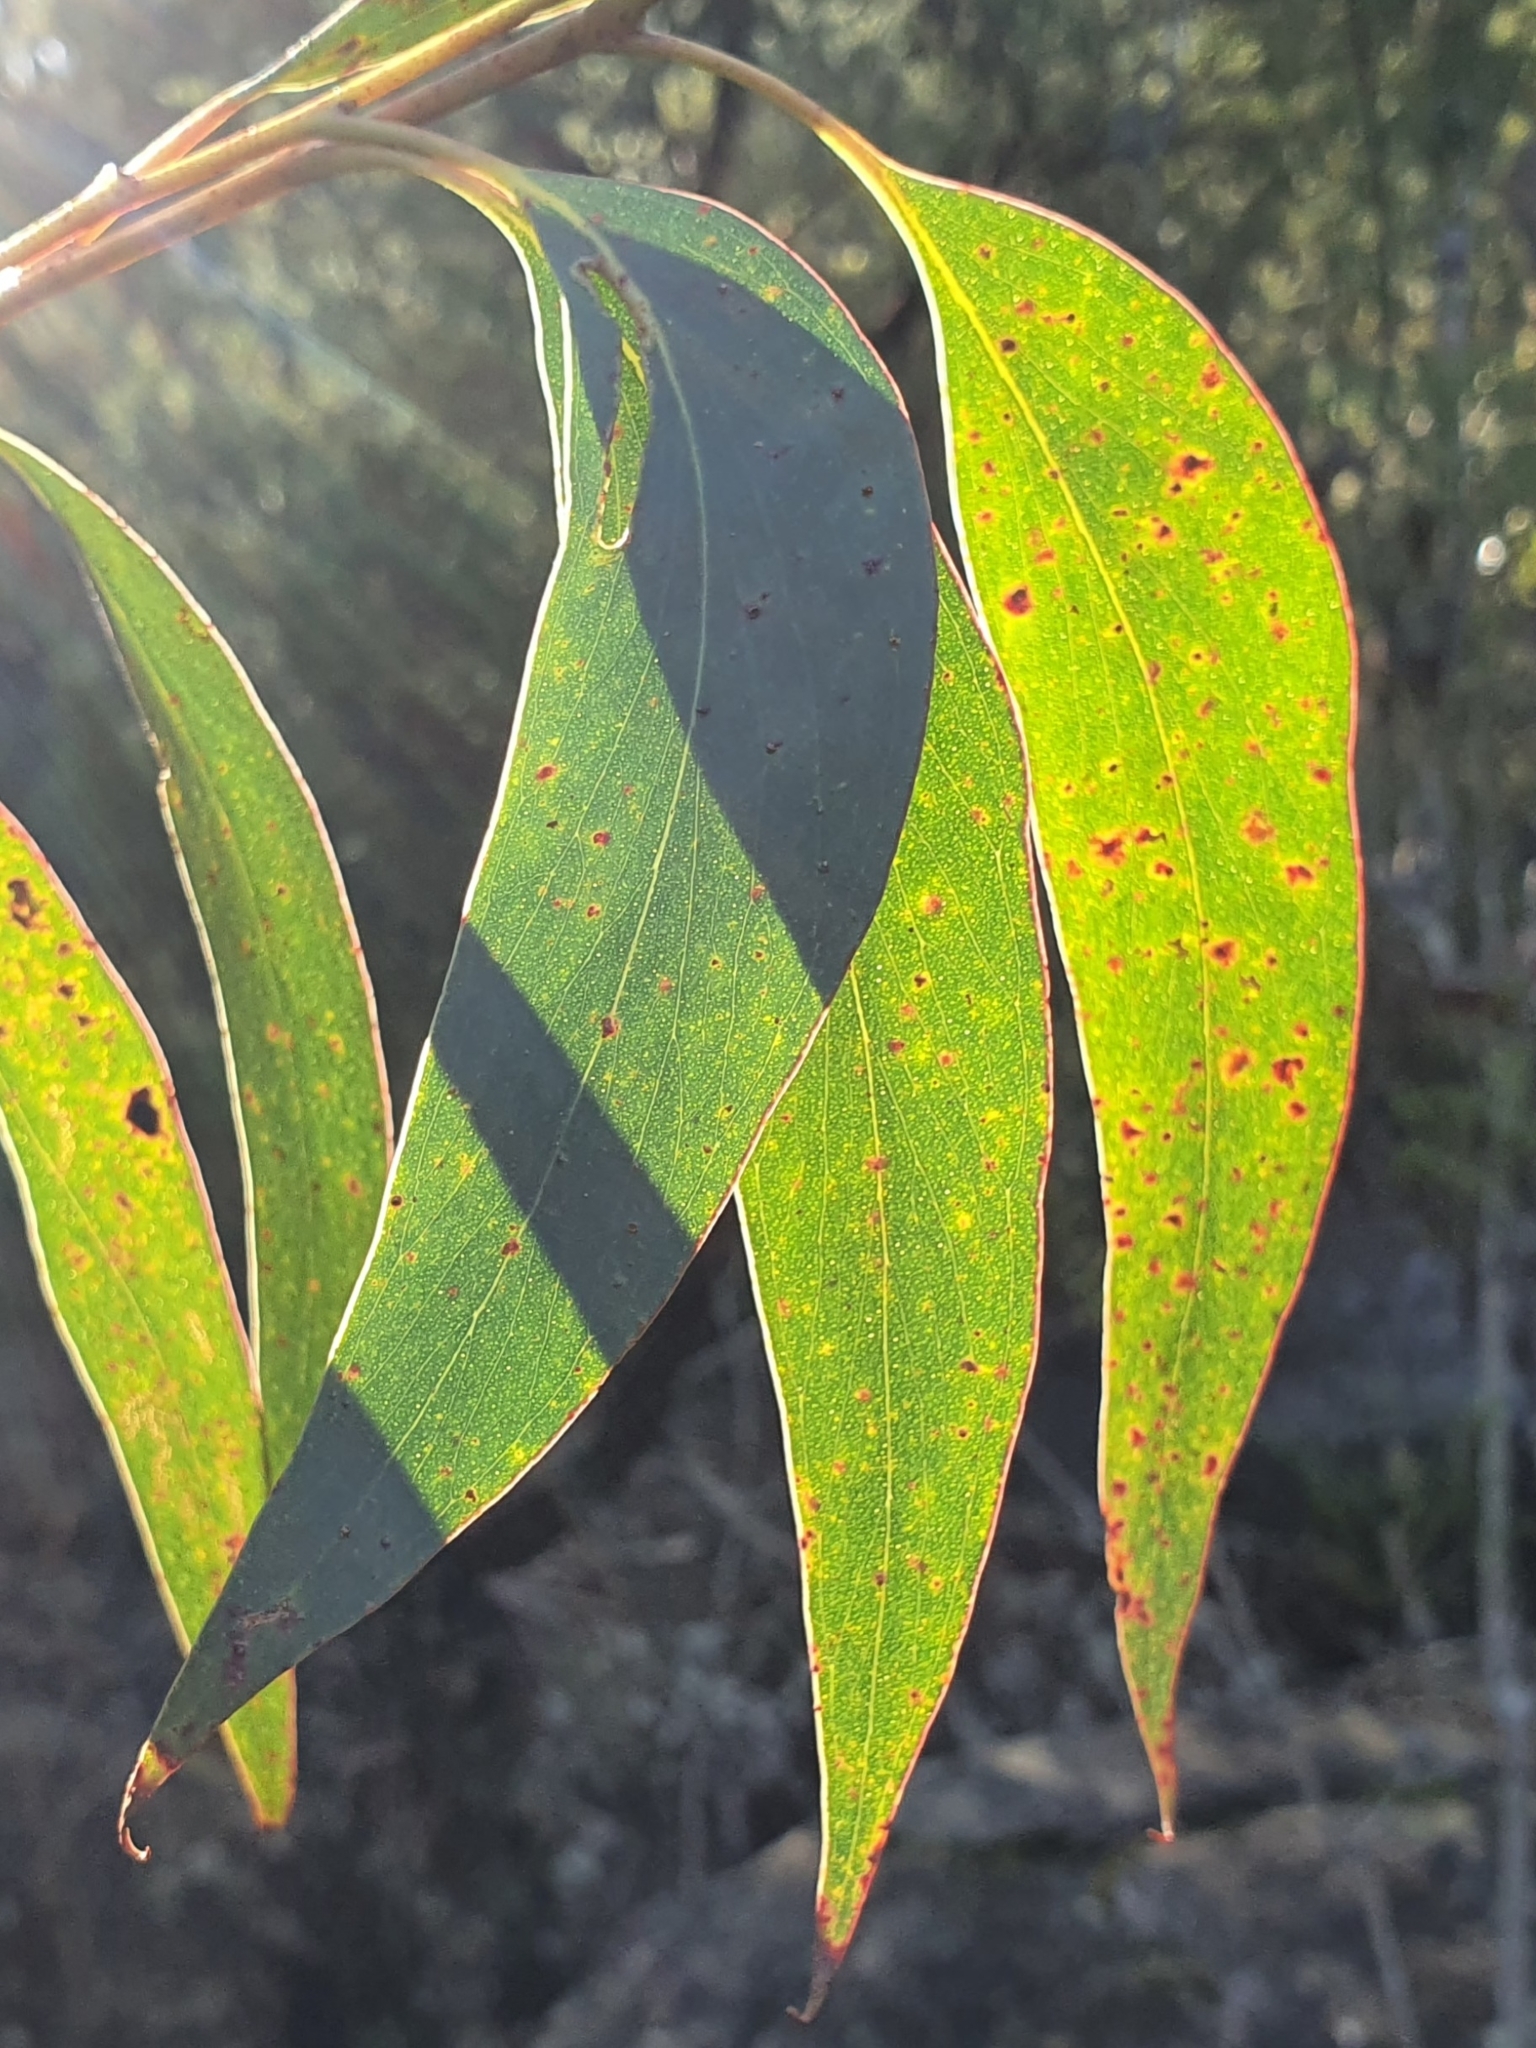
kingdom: Plantae
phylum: Tracheophyta
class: Magnoliopsida
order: Myrtales
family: Myrtaceae
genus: Eucalyptus
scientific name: Eucalyptus multicaulis
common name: Whipstick mallee-ash
